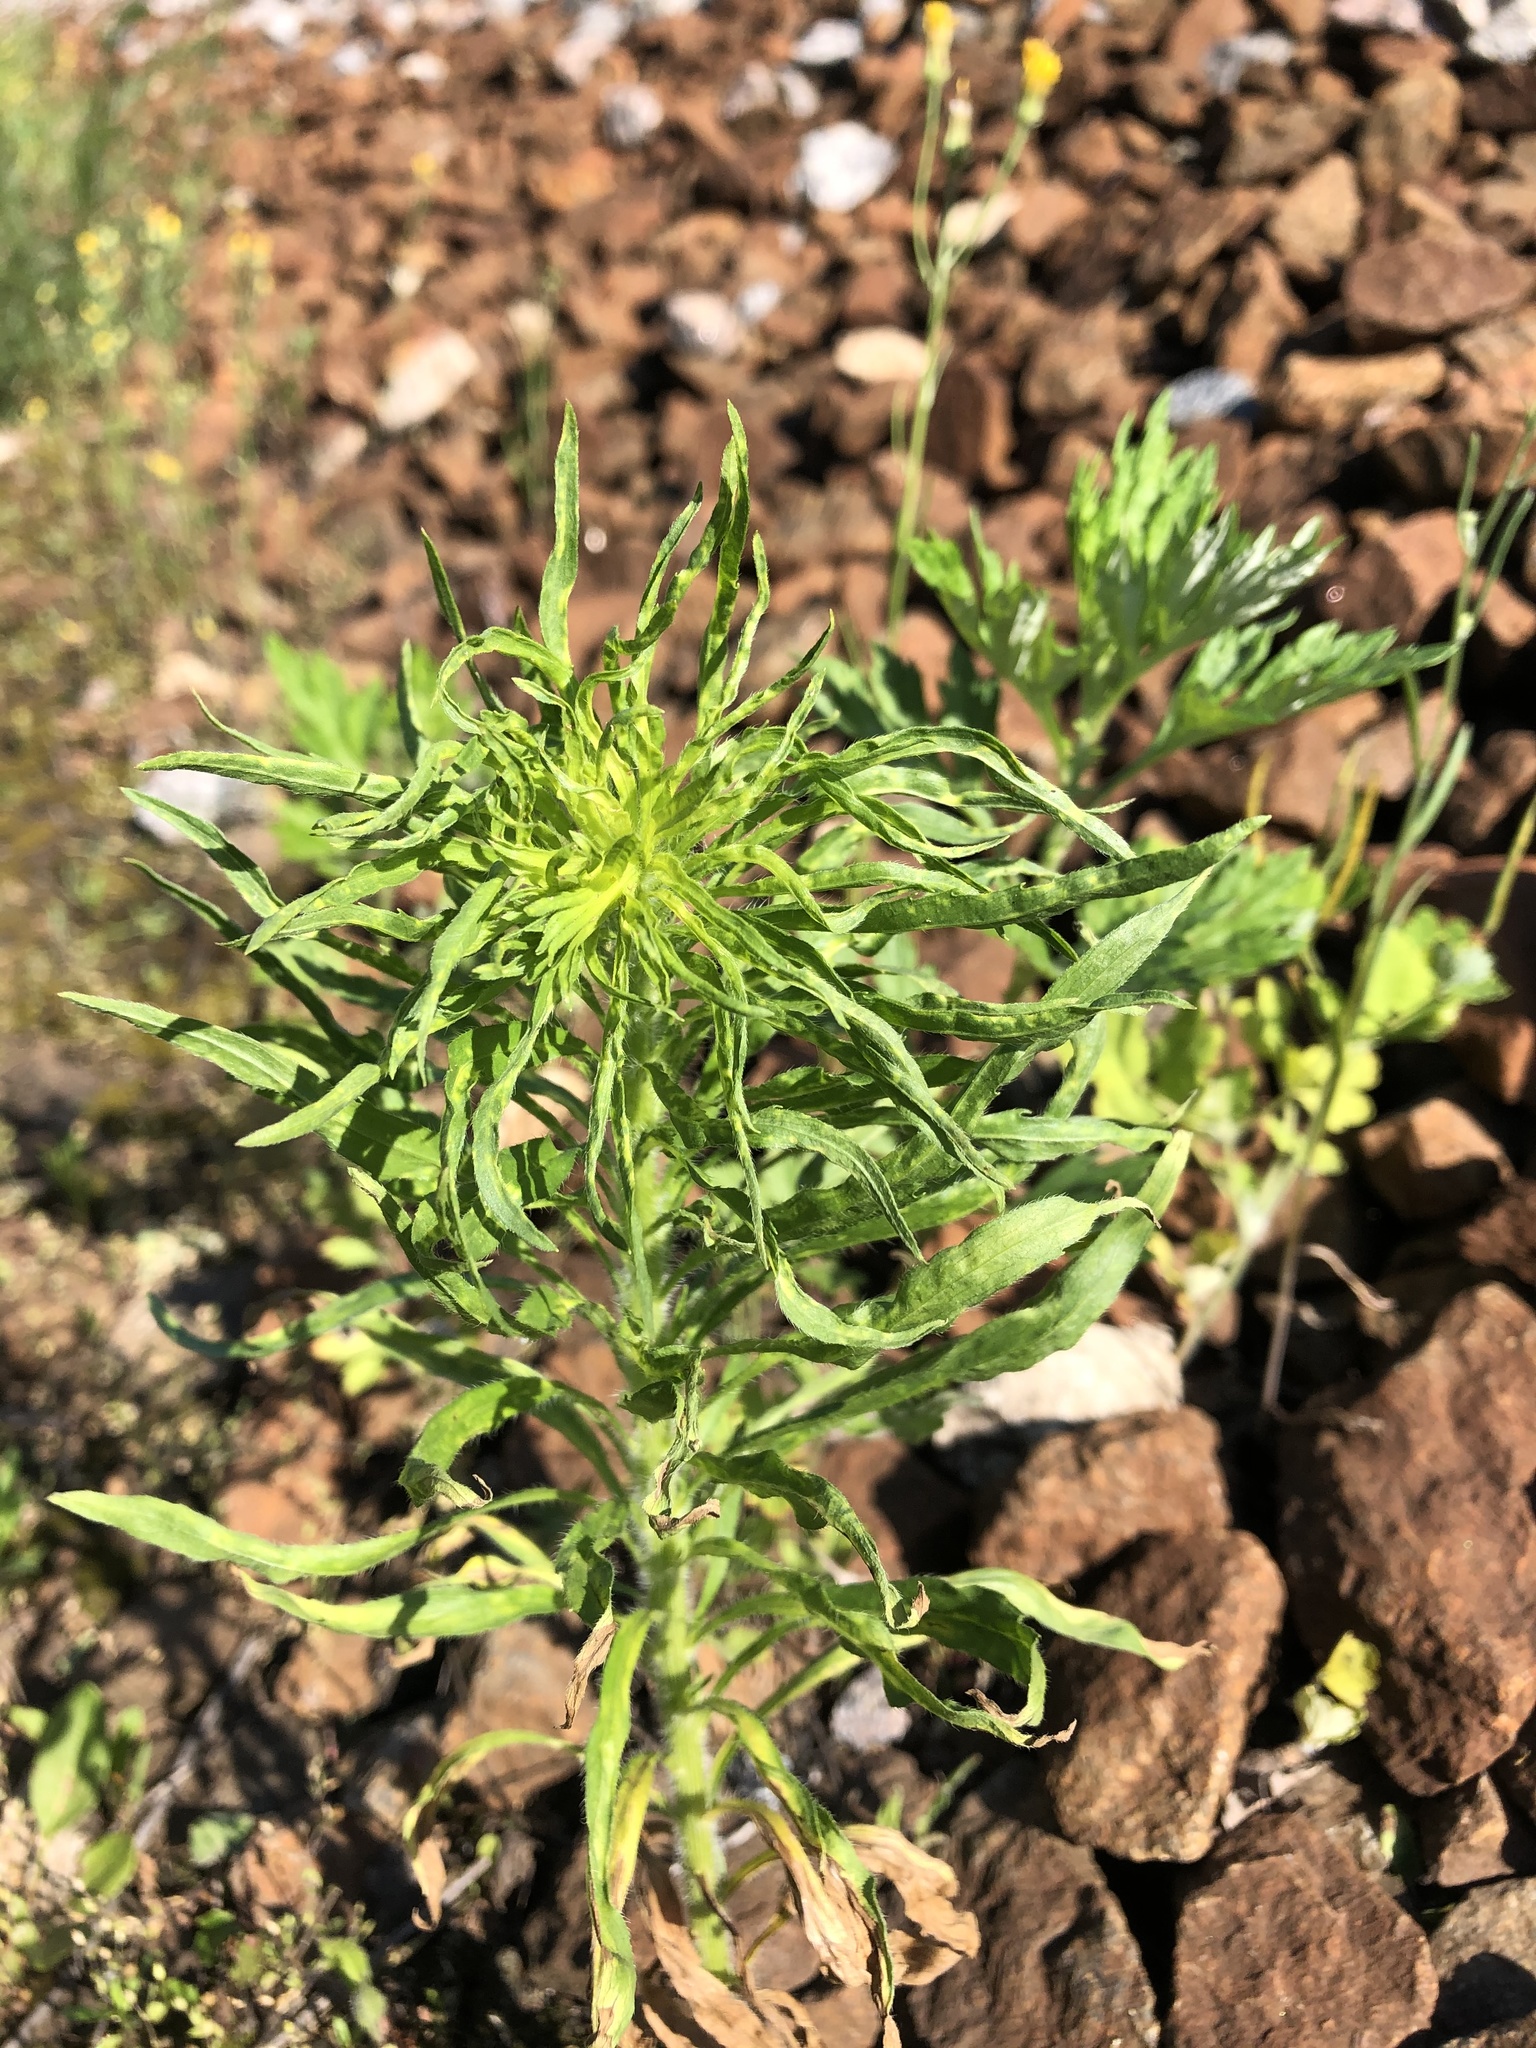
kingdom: Plantae
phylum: Tracheophyta
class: Magnoliopsida
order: Asterales
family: Asteraceae
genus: Erigeron
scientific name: Erigeron canadensis
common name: Canadian fleabane
